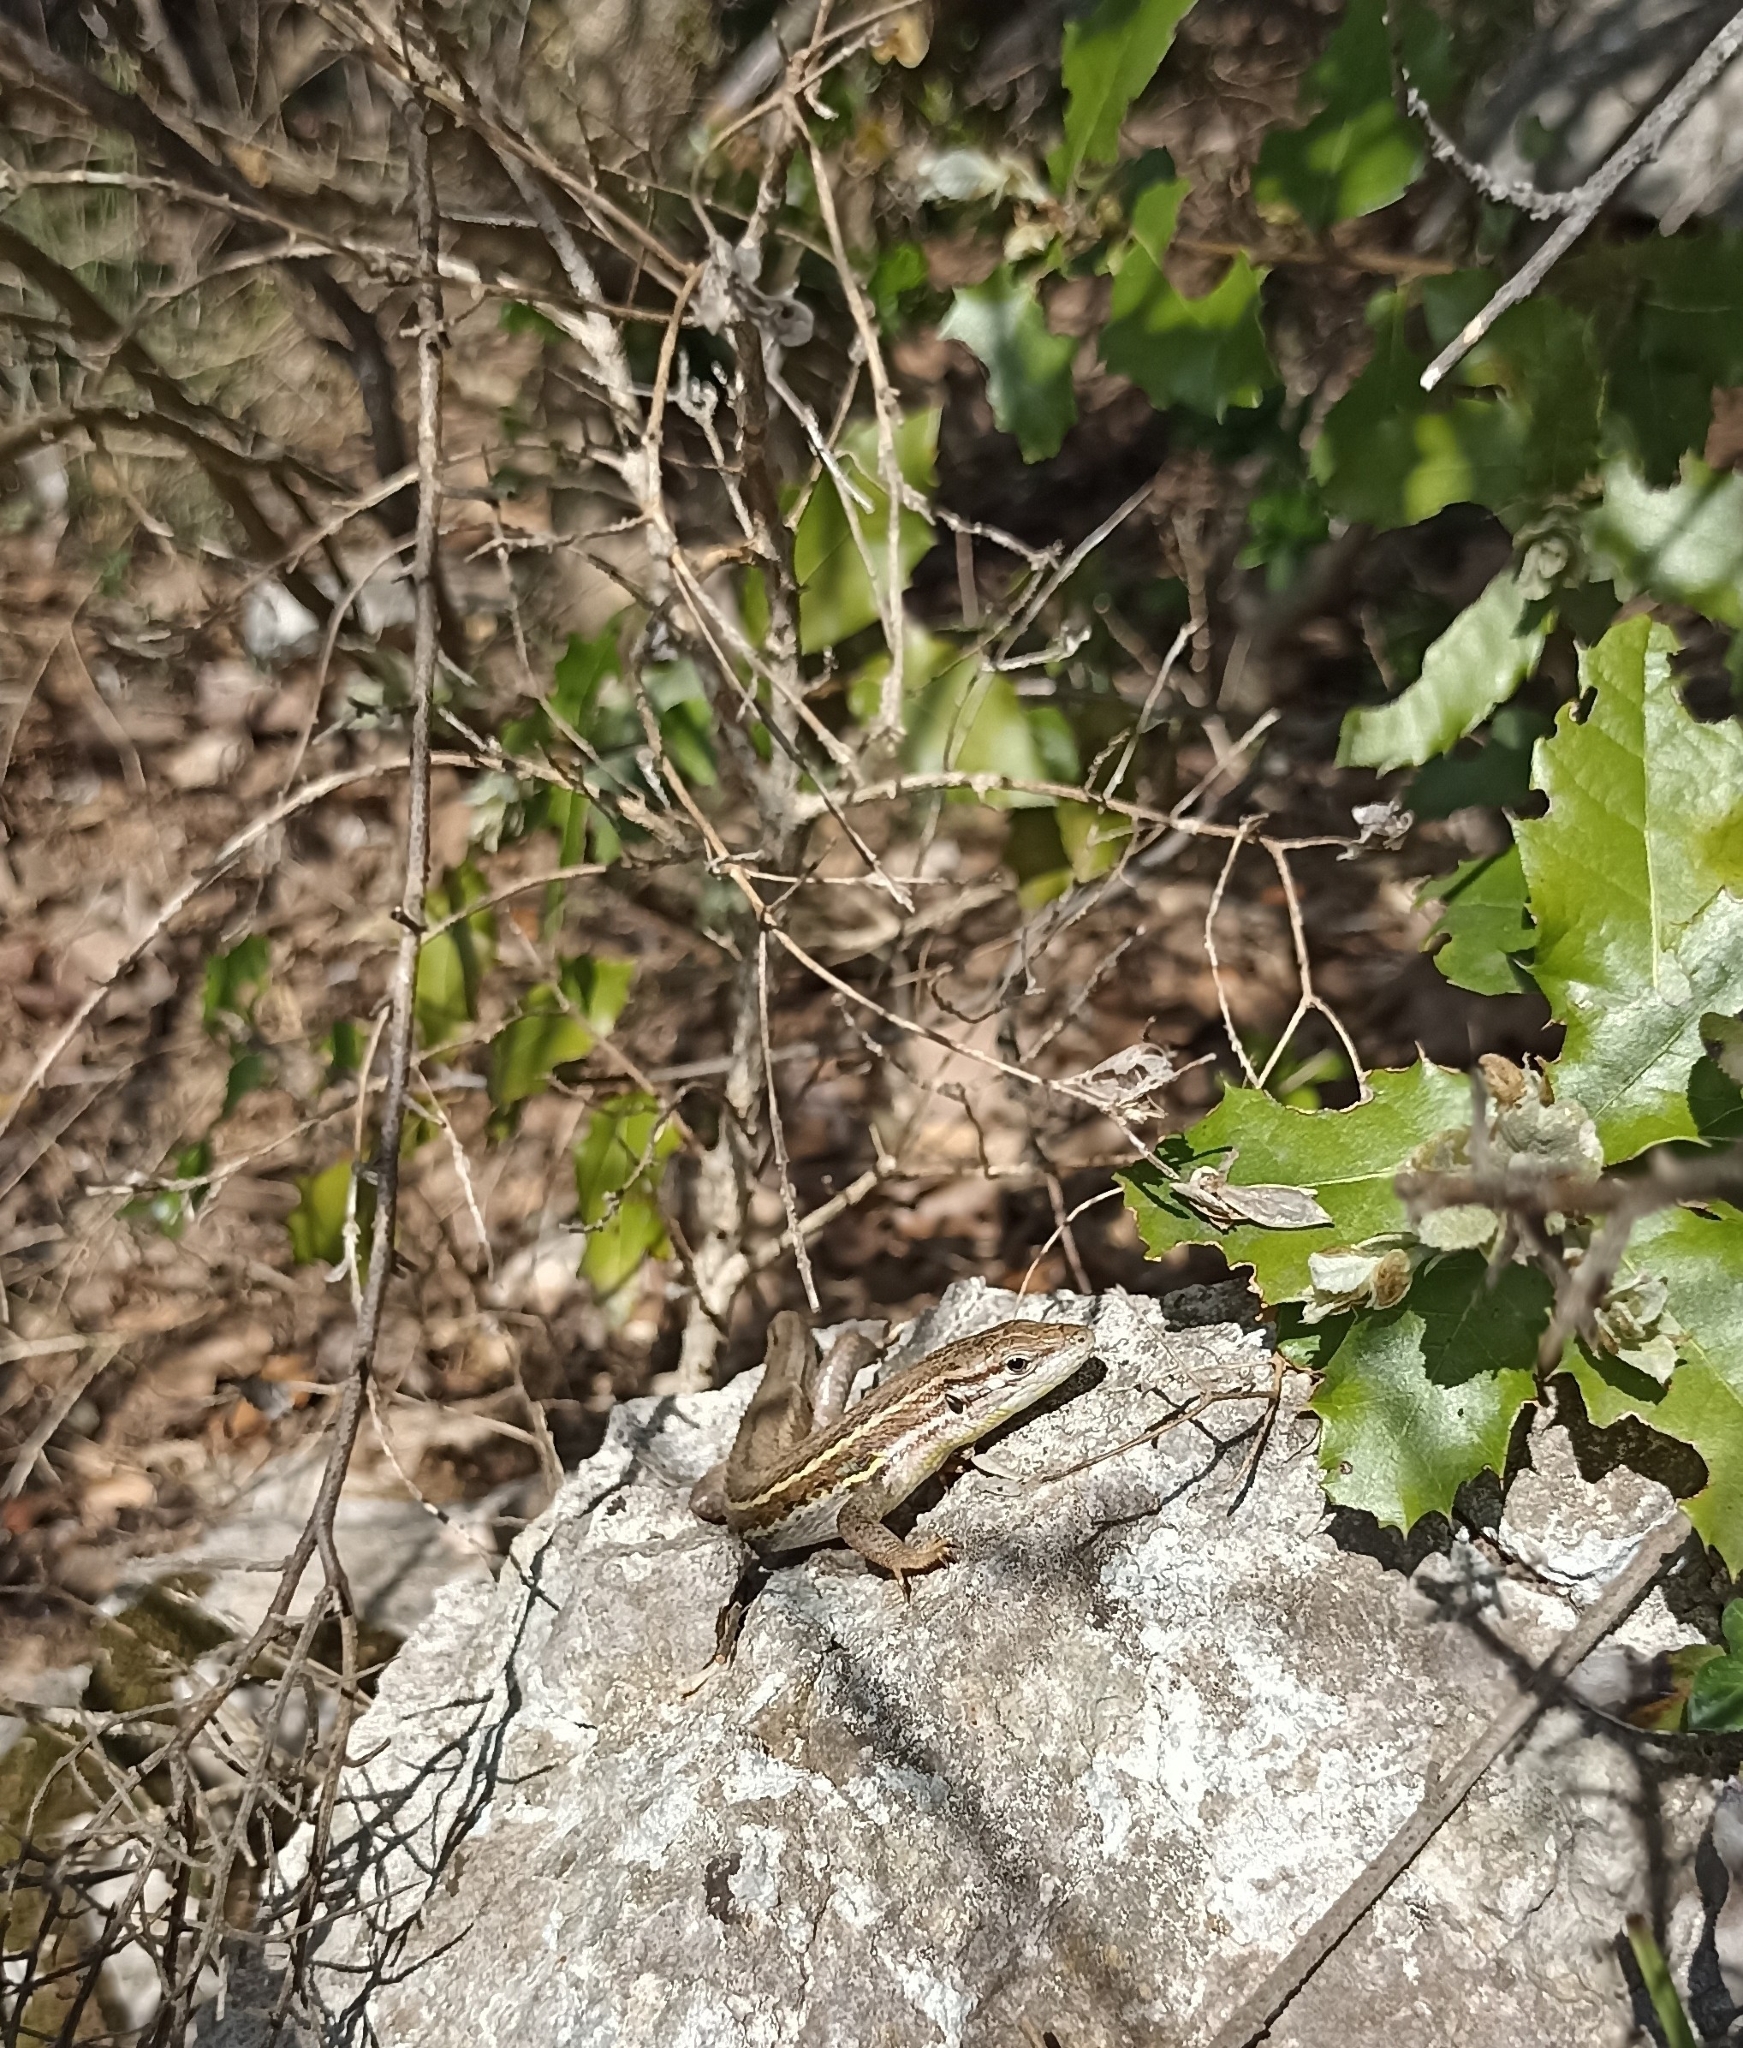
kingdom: Animalia
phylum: Chordata
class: Squamata
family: Lacertidae
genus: Psammodromus
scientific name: Psammodromus algirus
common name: Algerian psammodromus
